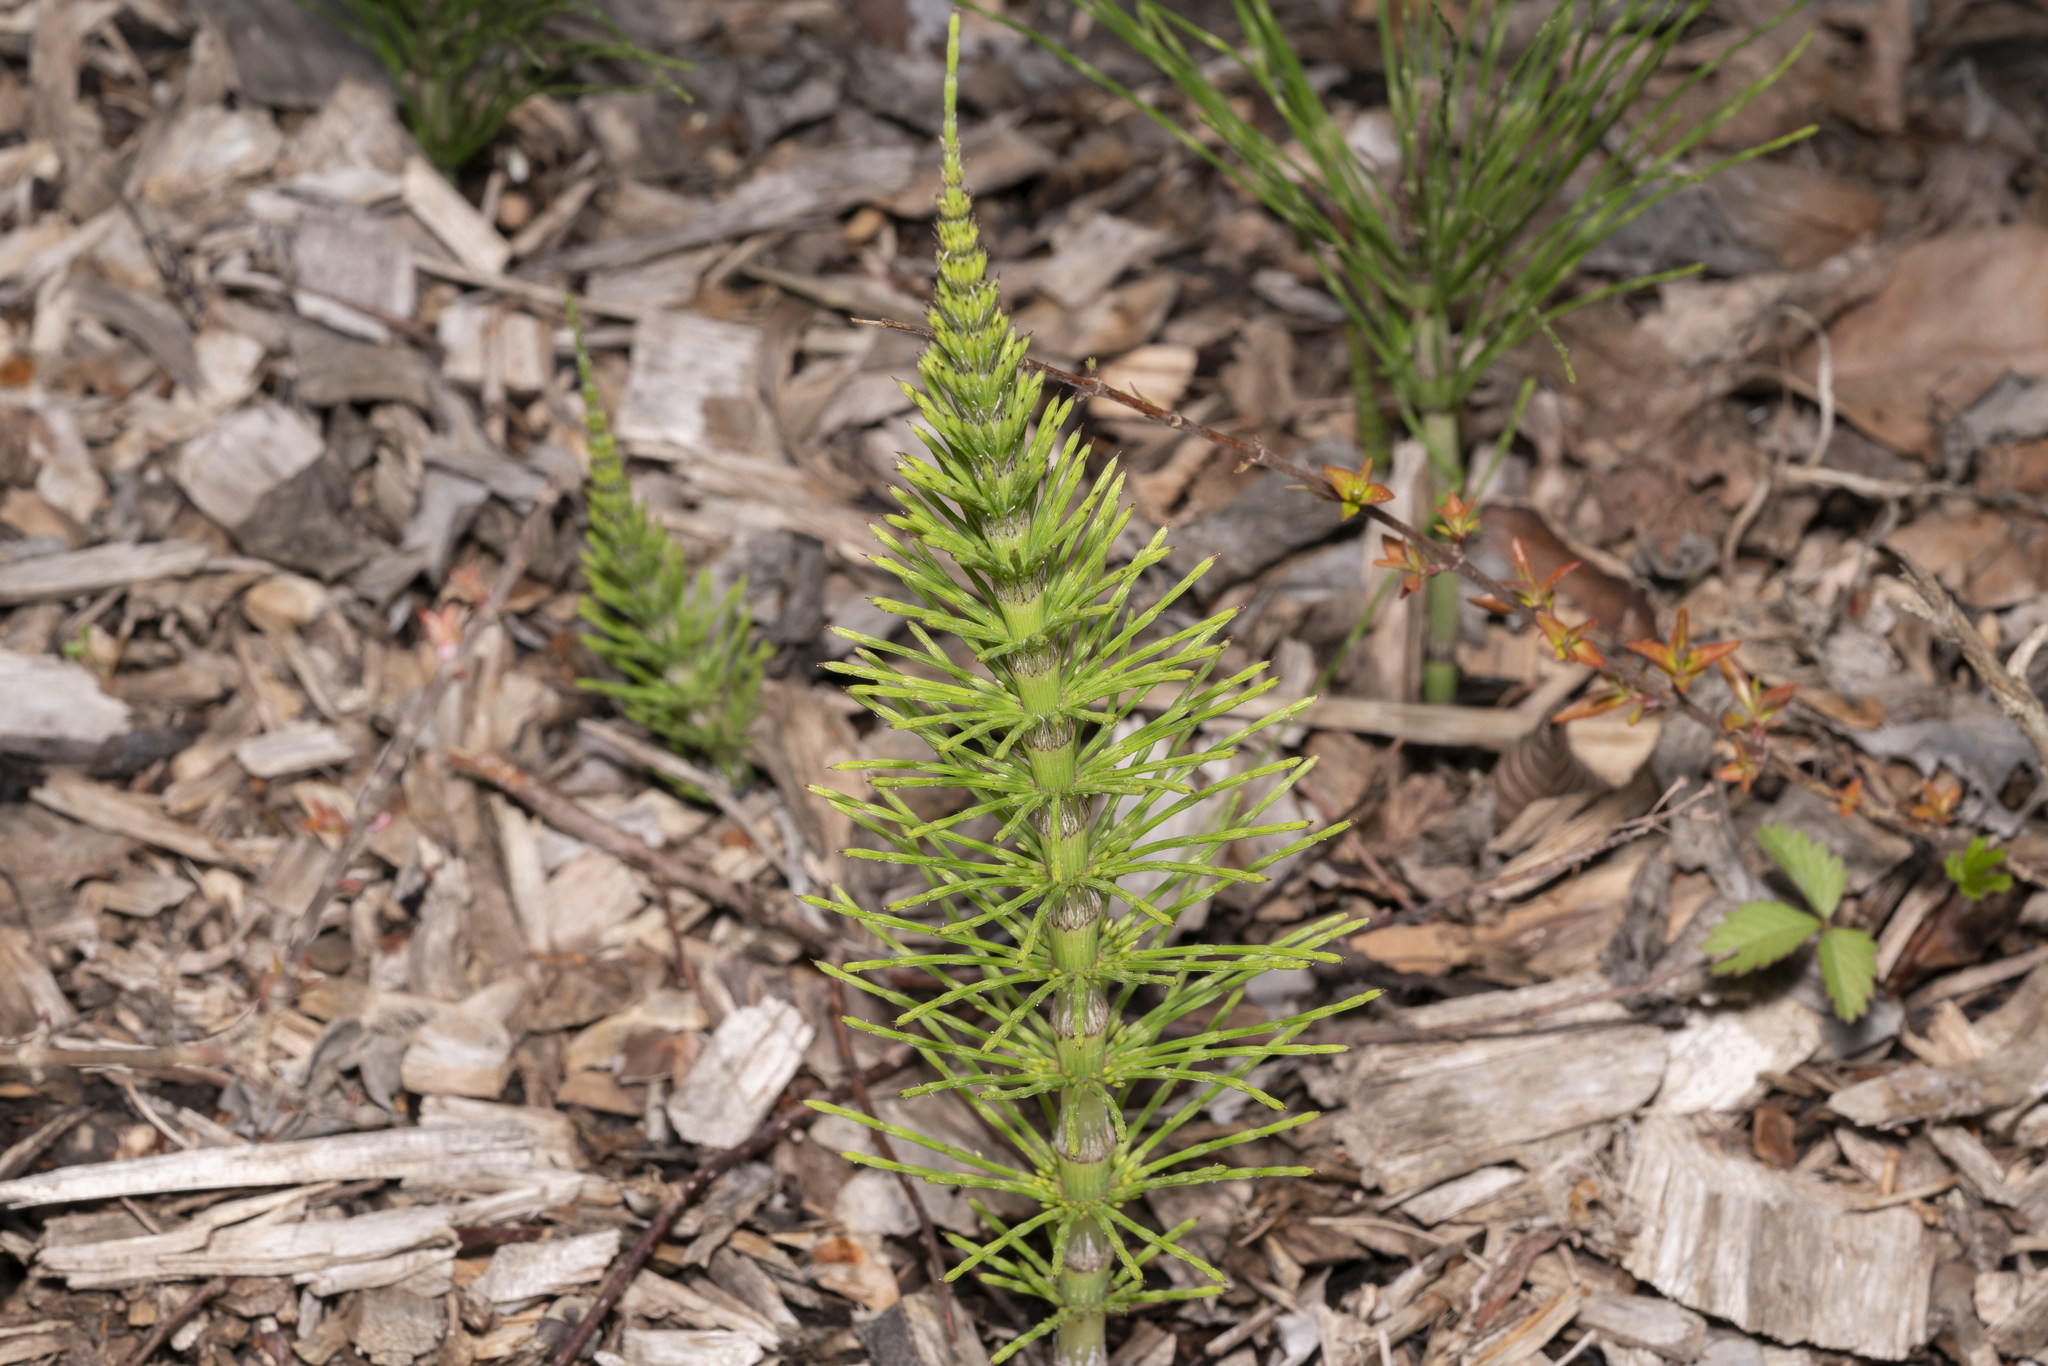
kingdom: Plantae
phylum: Tracheophyta
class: Polypodiopsida
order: Equisetales
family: Equisetaceae
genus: Equisetum
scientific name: Equisetum telmateia
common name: Great horsetail
